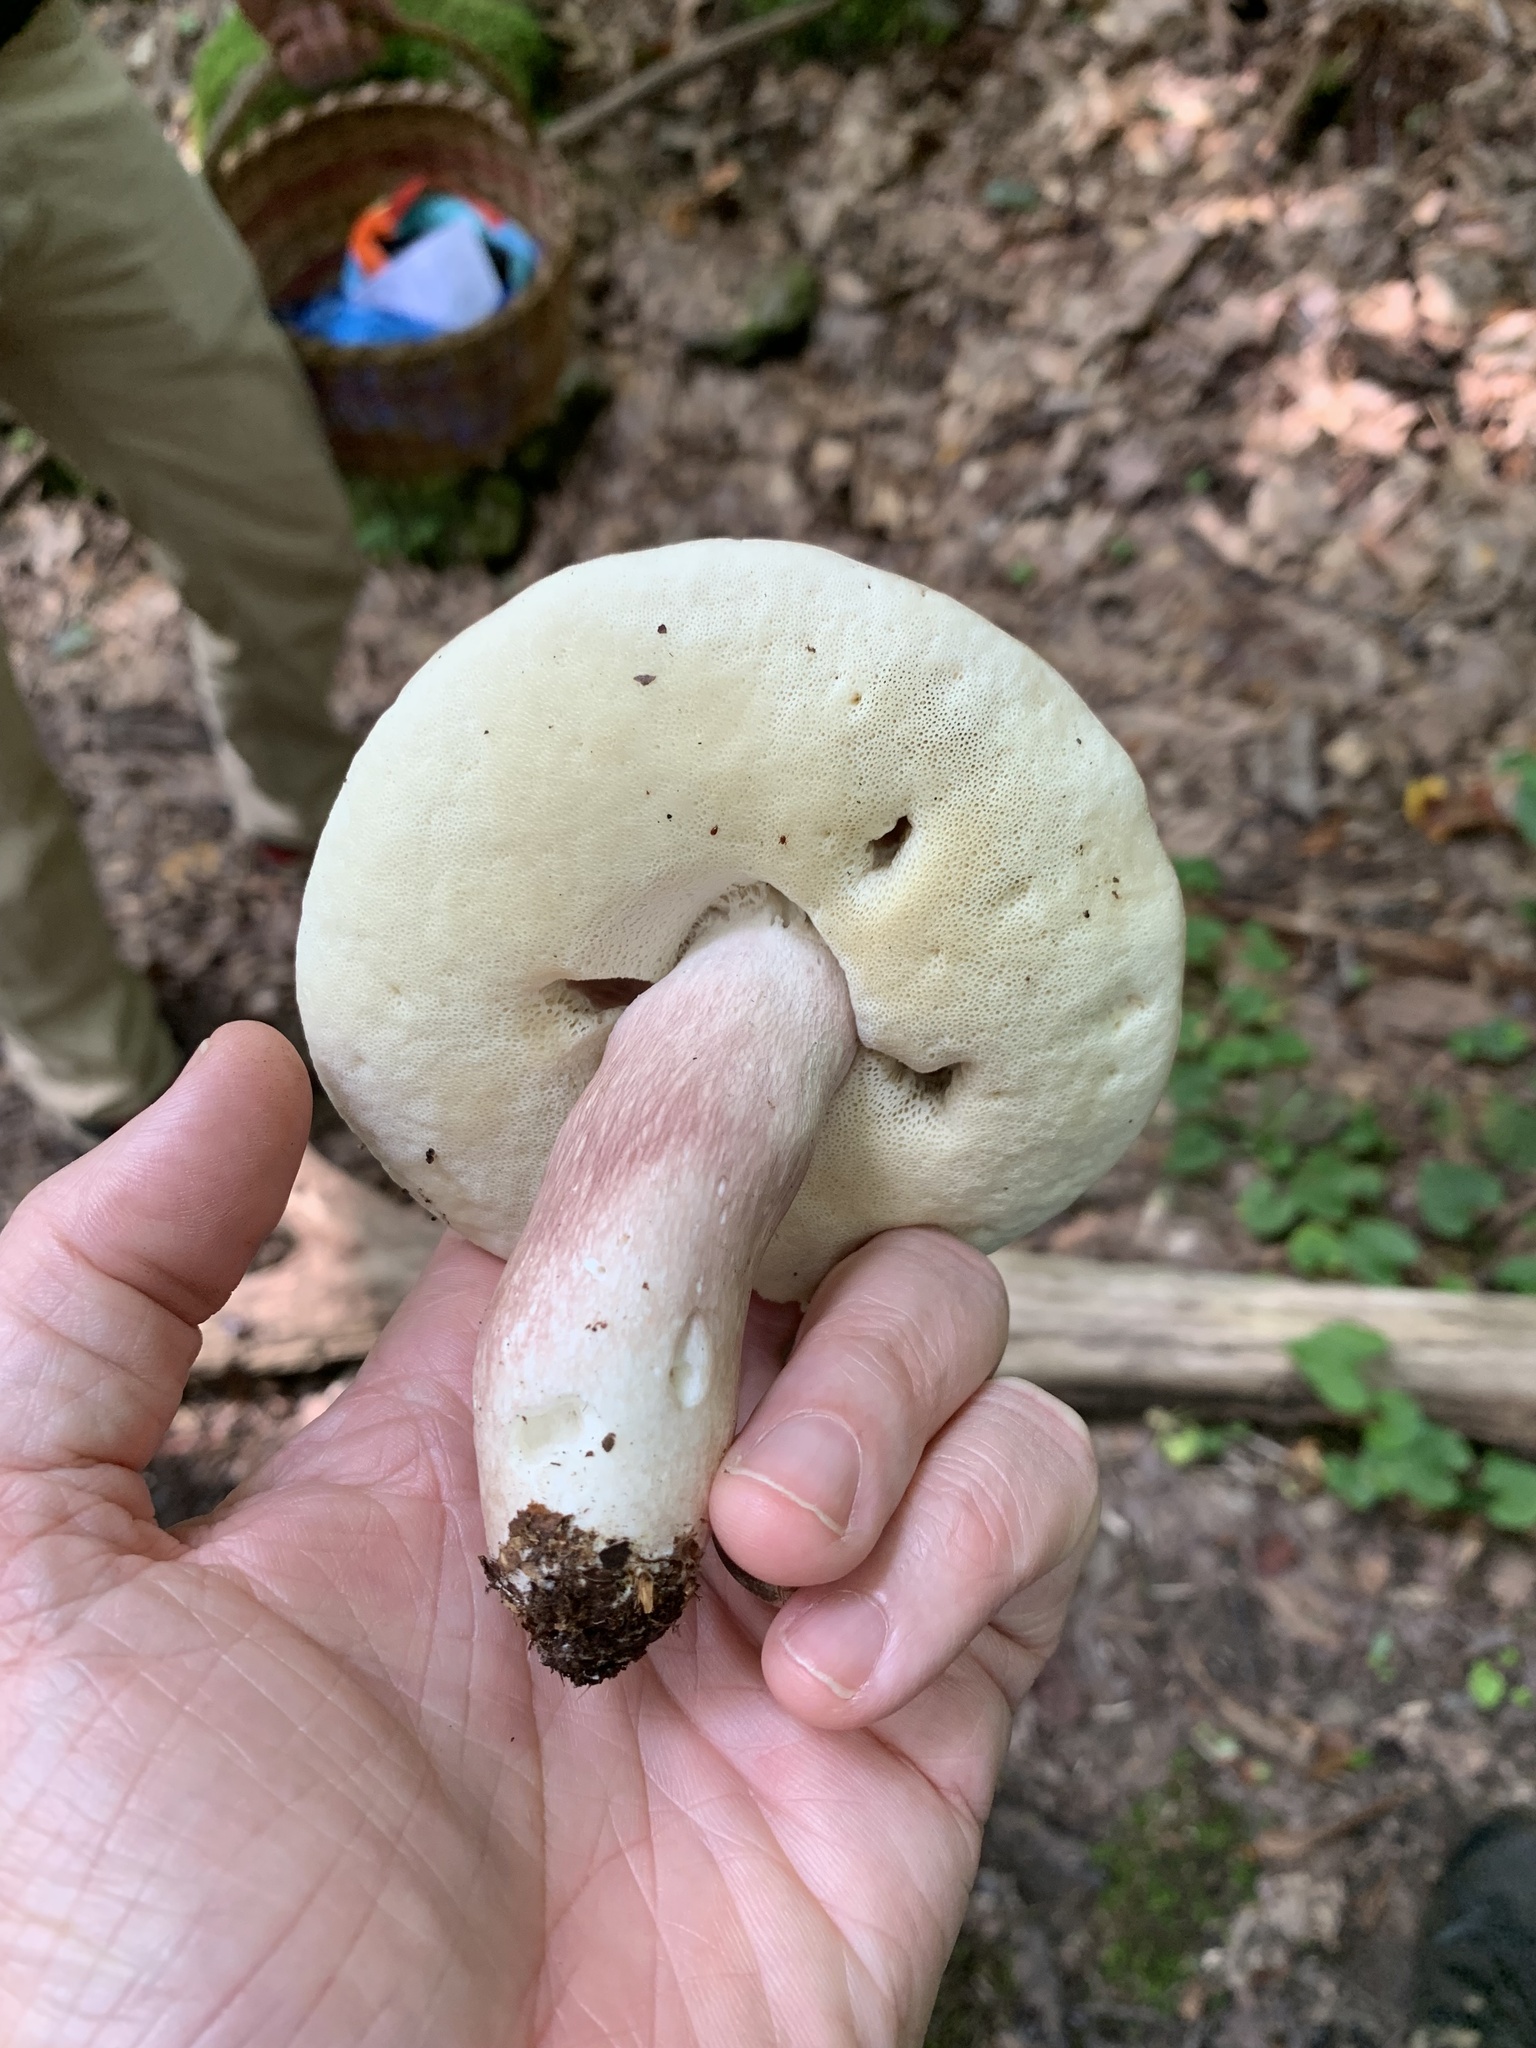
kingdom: Fungi
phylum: Basidiomycota
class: Agaricomycetes
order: Boletales
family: Boletaceae
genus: Xanthoconium
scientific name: Xanthoconium separans
